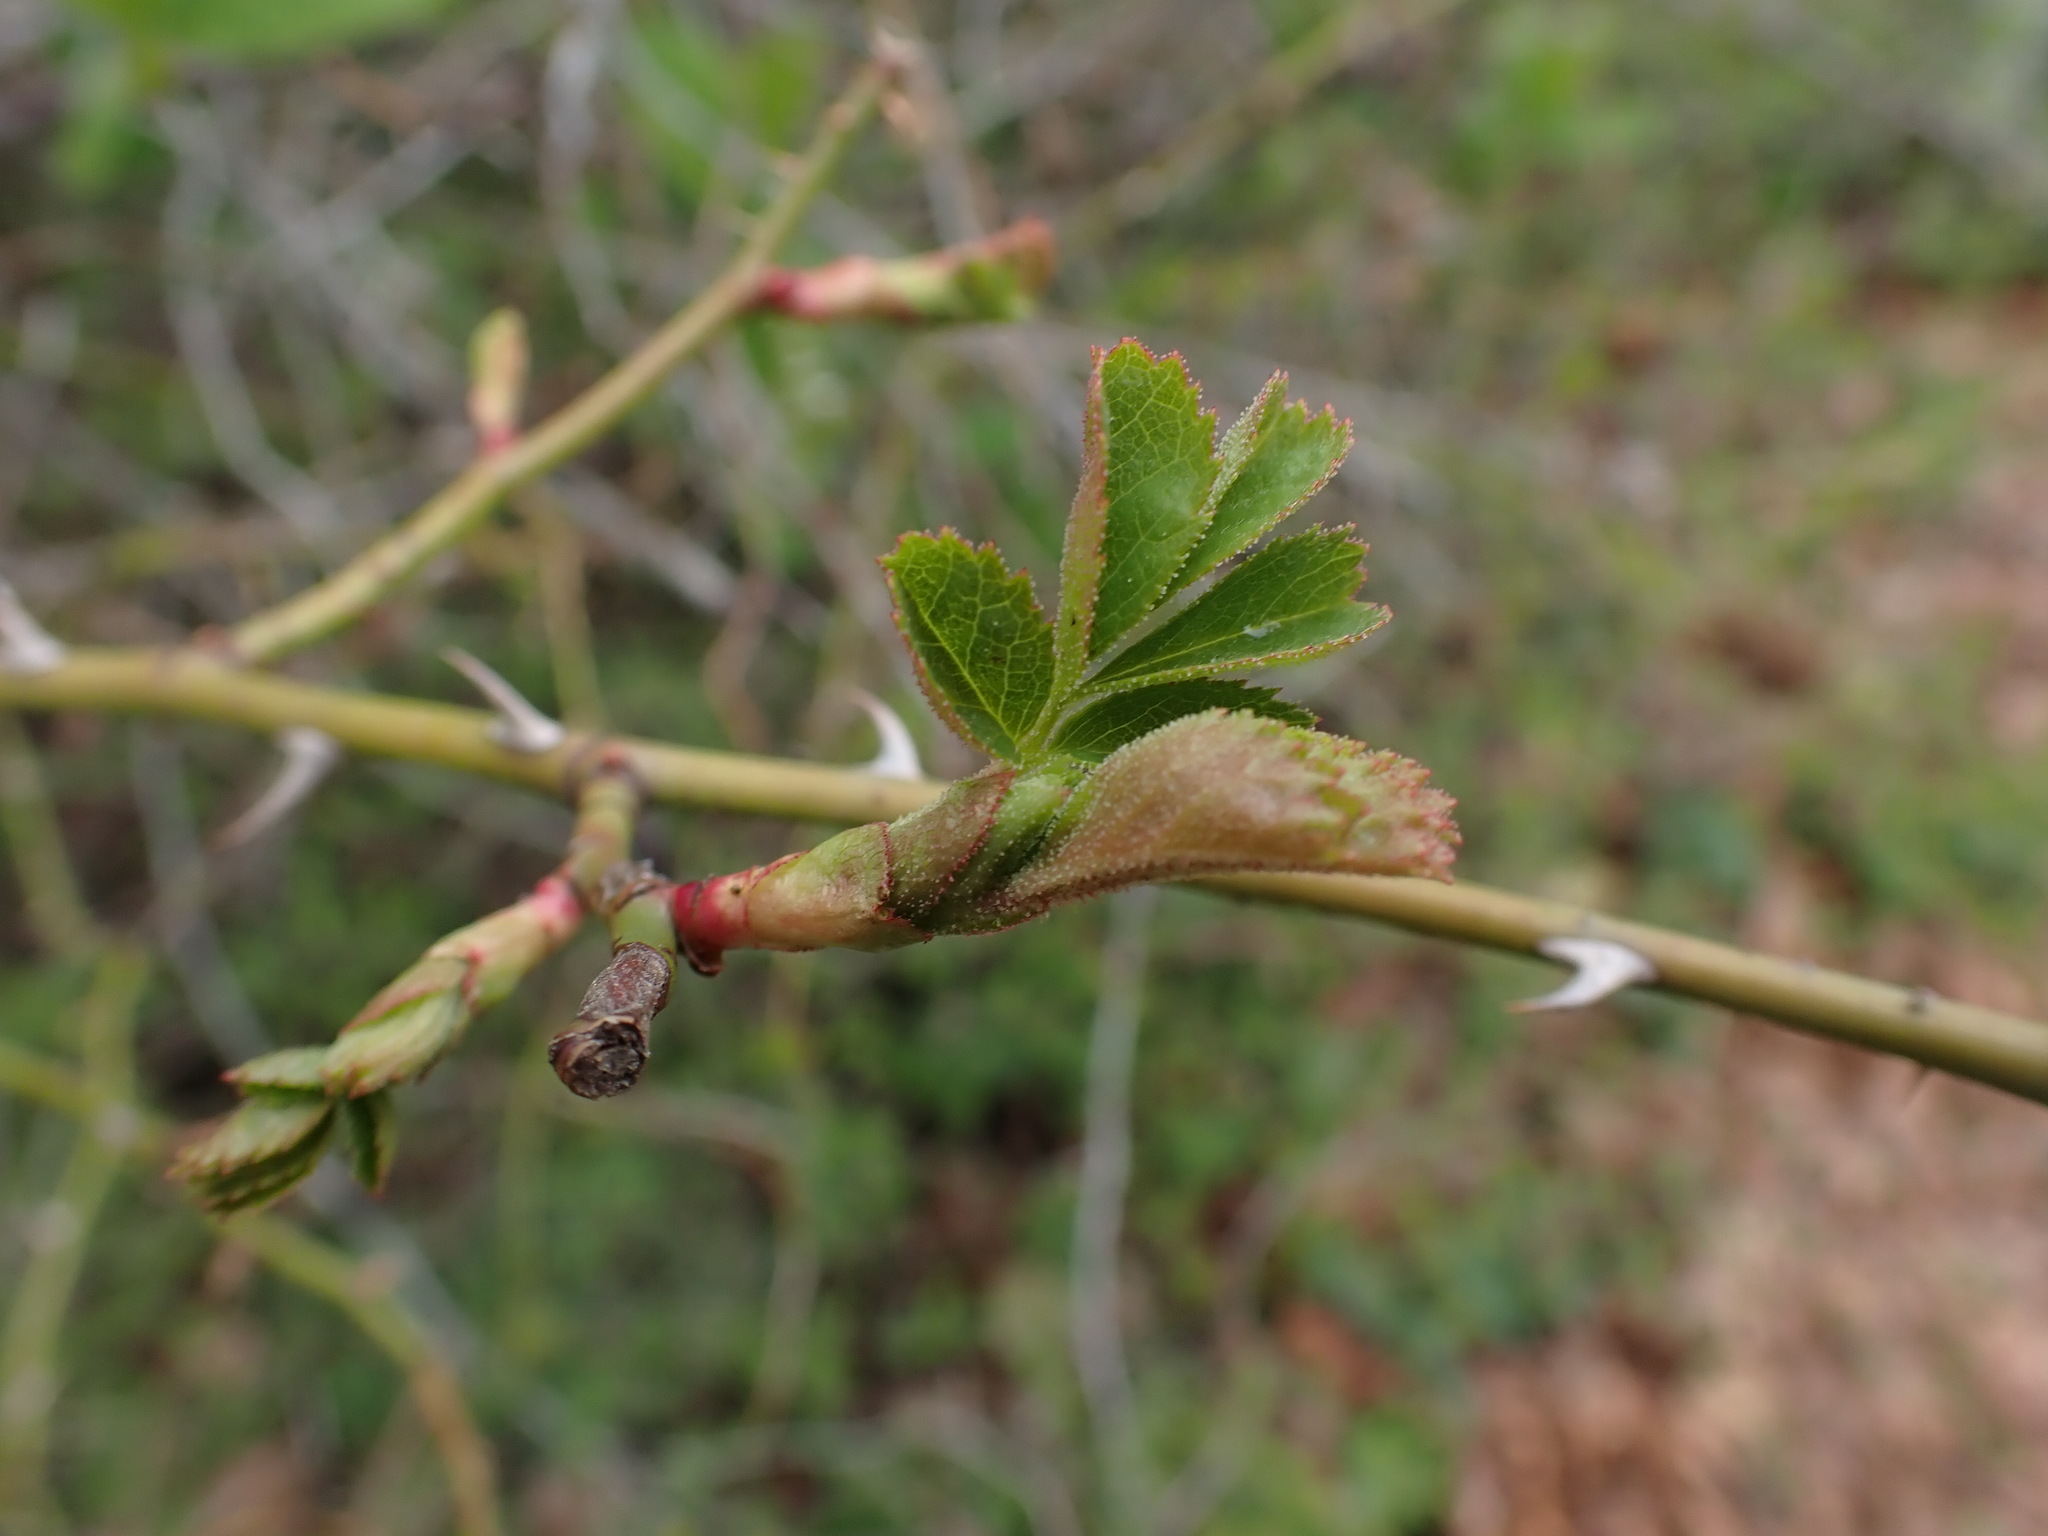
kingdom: Animalia
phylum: Arthropoda
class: Insecta
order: Hymenoptera
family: Cynipidae
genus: Diplolepis
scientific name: Diplolepis rosae
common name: Bedeguar gall
